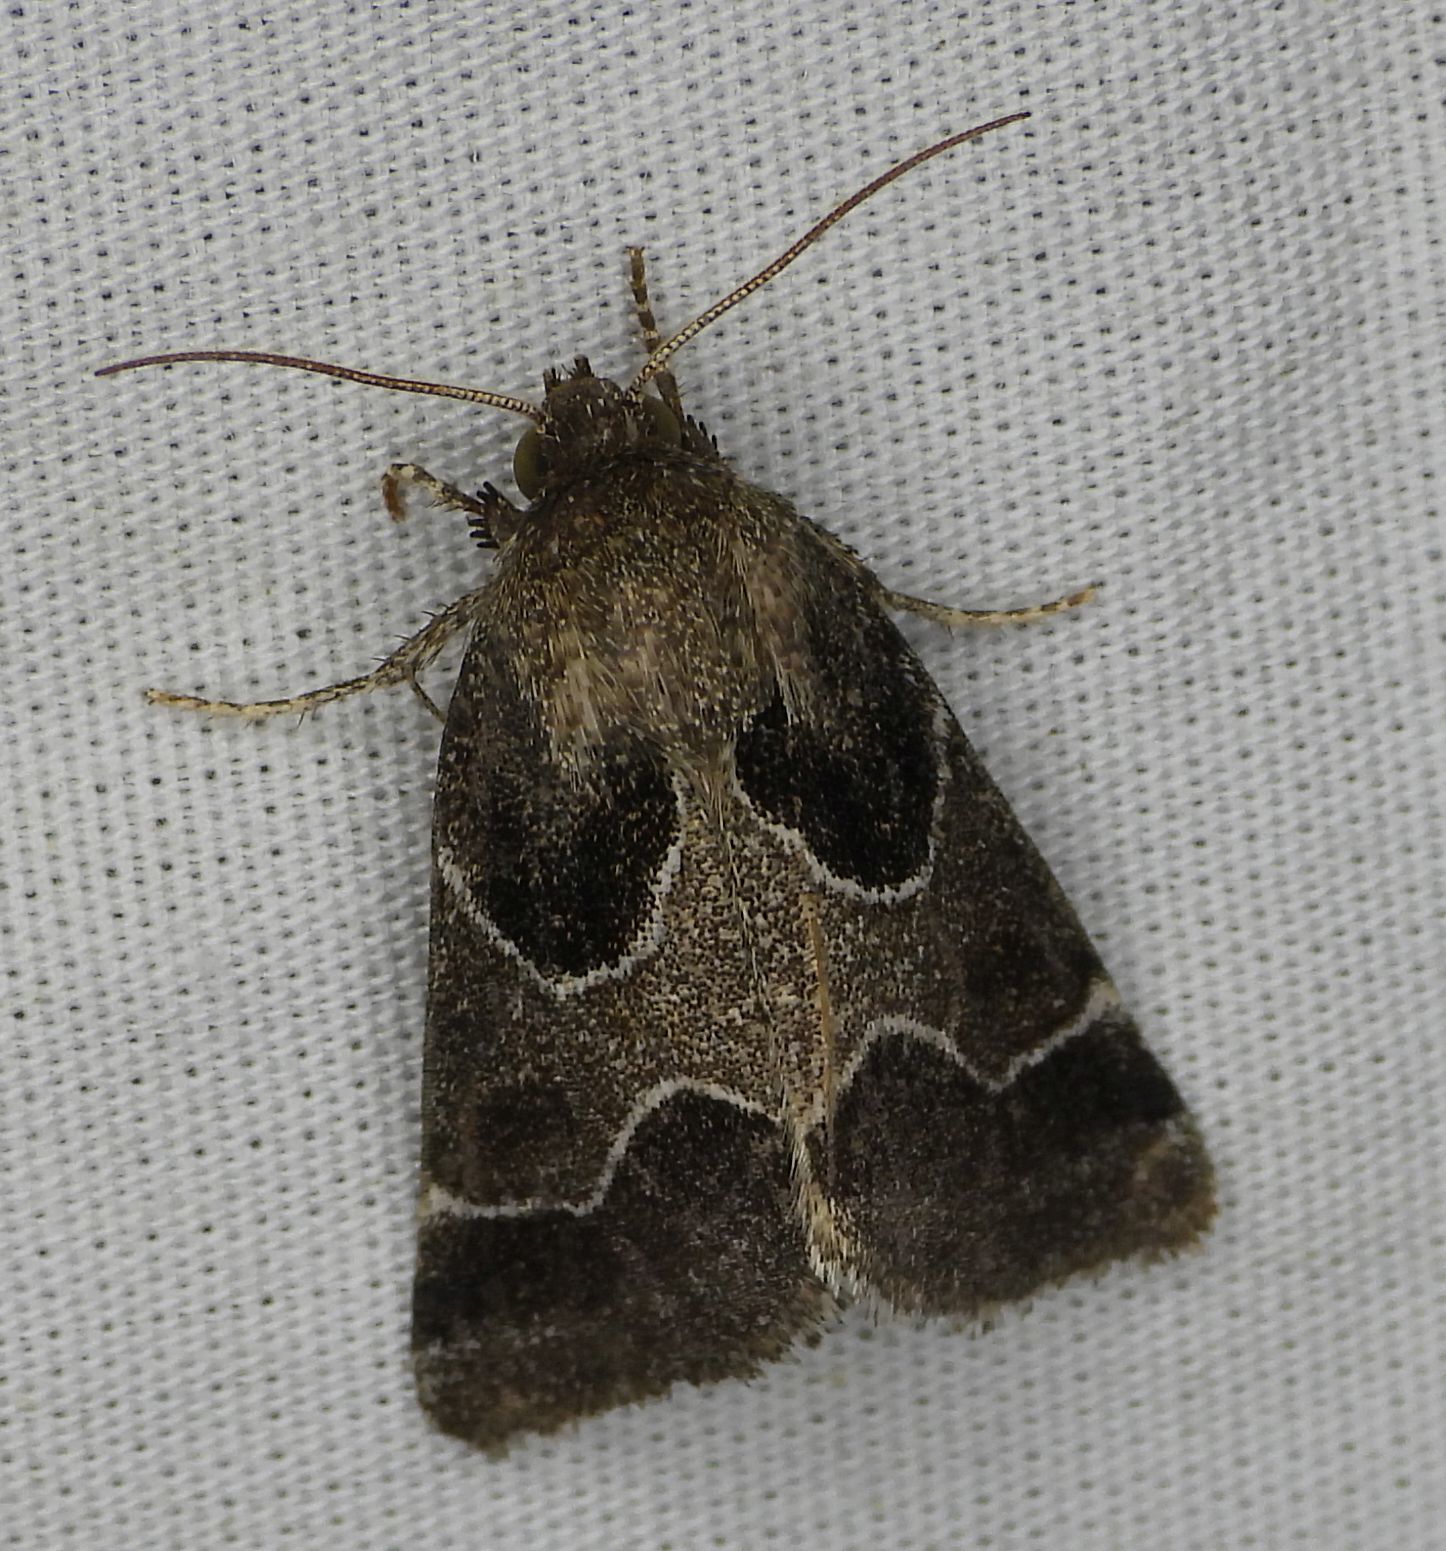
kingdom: Animalia
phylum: Arthropoda
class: Insecta
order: Lepidoptera
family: Noctuidae
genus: Schinia
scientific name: Schinia rivulosa
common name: Scarce meal-moth
